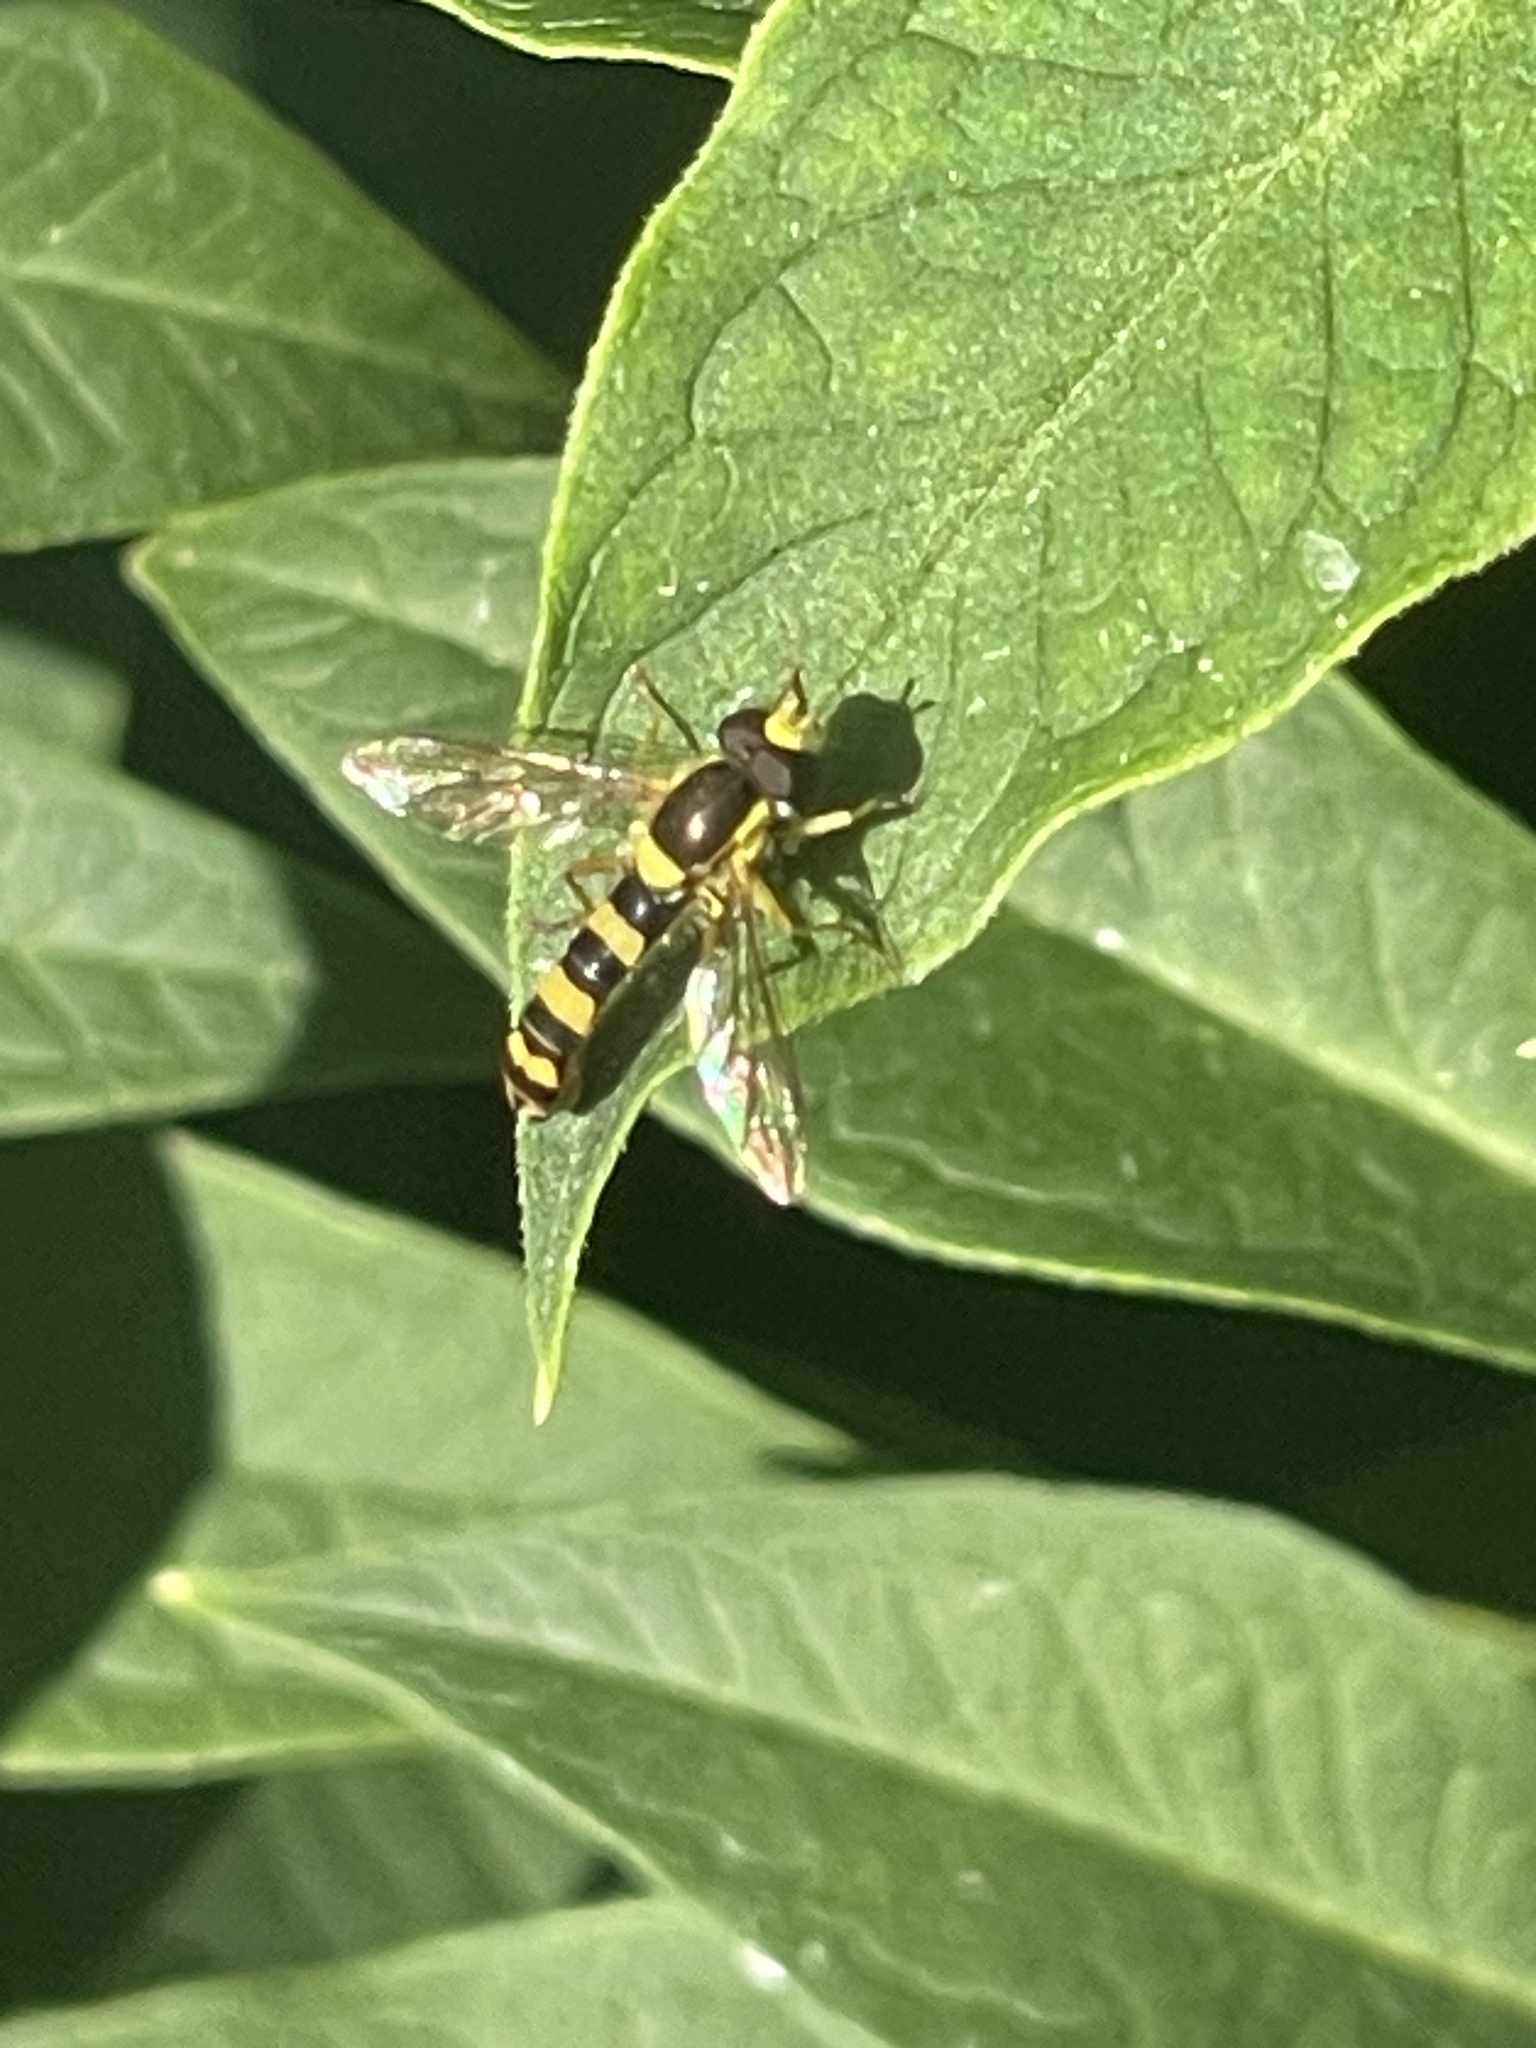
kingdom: Animalia
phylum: Arthropoda
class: Insecta
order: Diptera
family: Syrphidae
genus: Sphaerophoria
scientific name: Sphaerophoria
